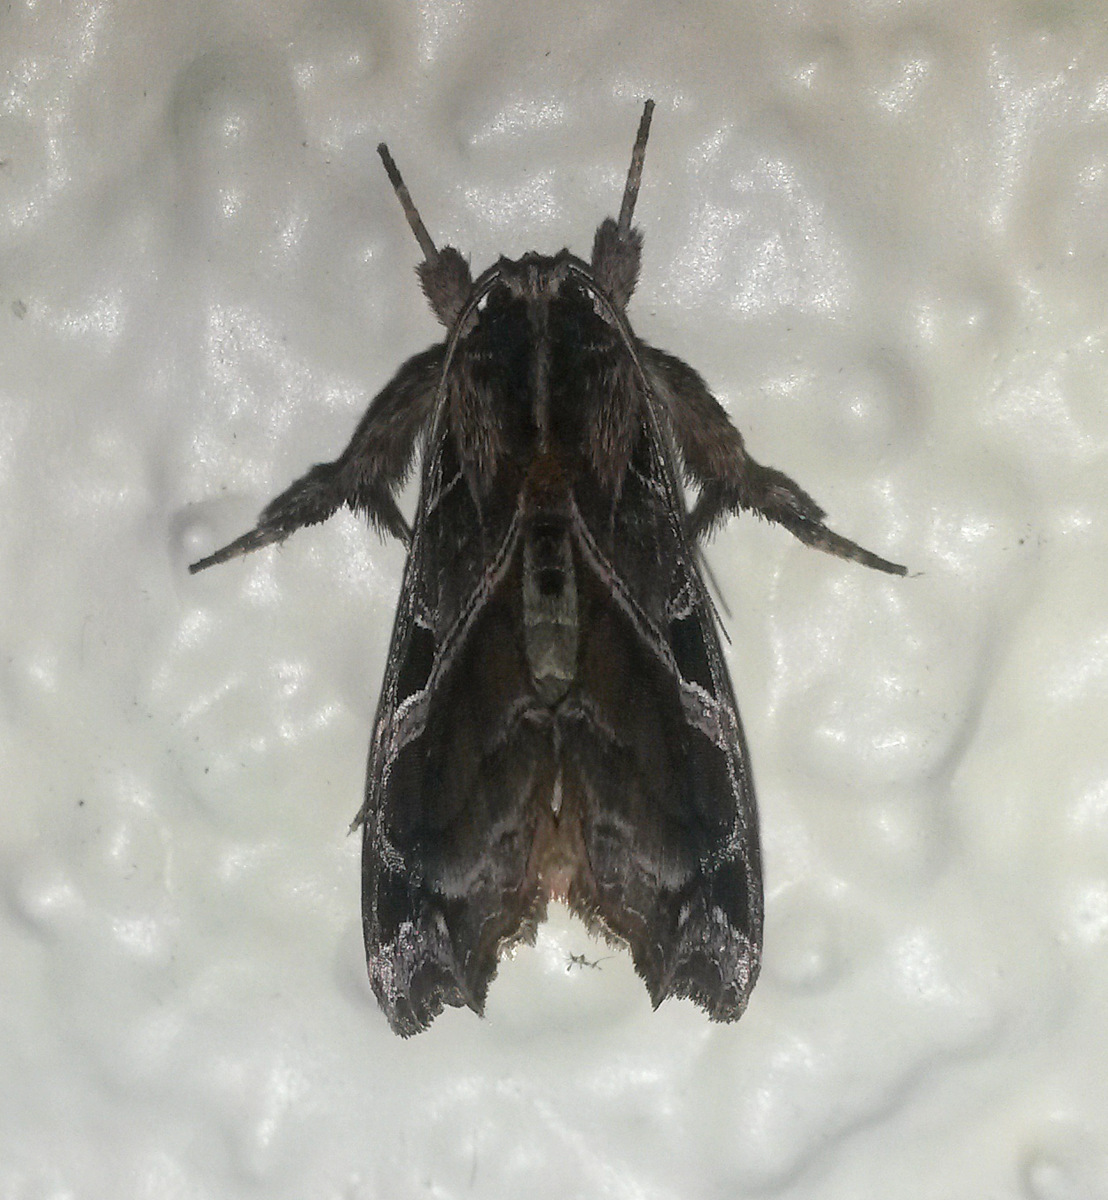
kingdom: Animalia
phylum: Arthropoda
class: Insecta
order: Lepidoptera
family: Noctuidae
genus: Callopistria
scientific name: Callopistria floridensis
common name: Florida fern moth
